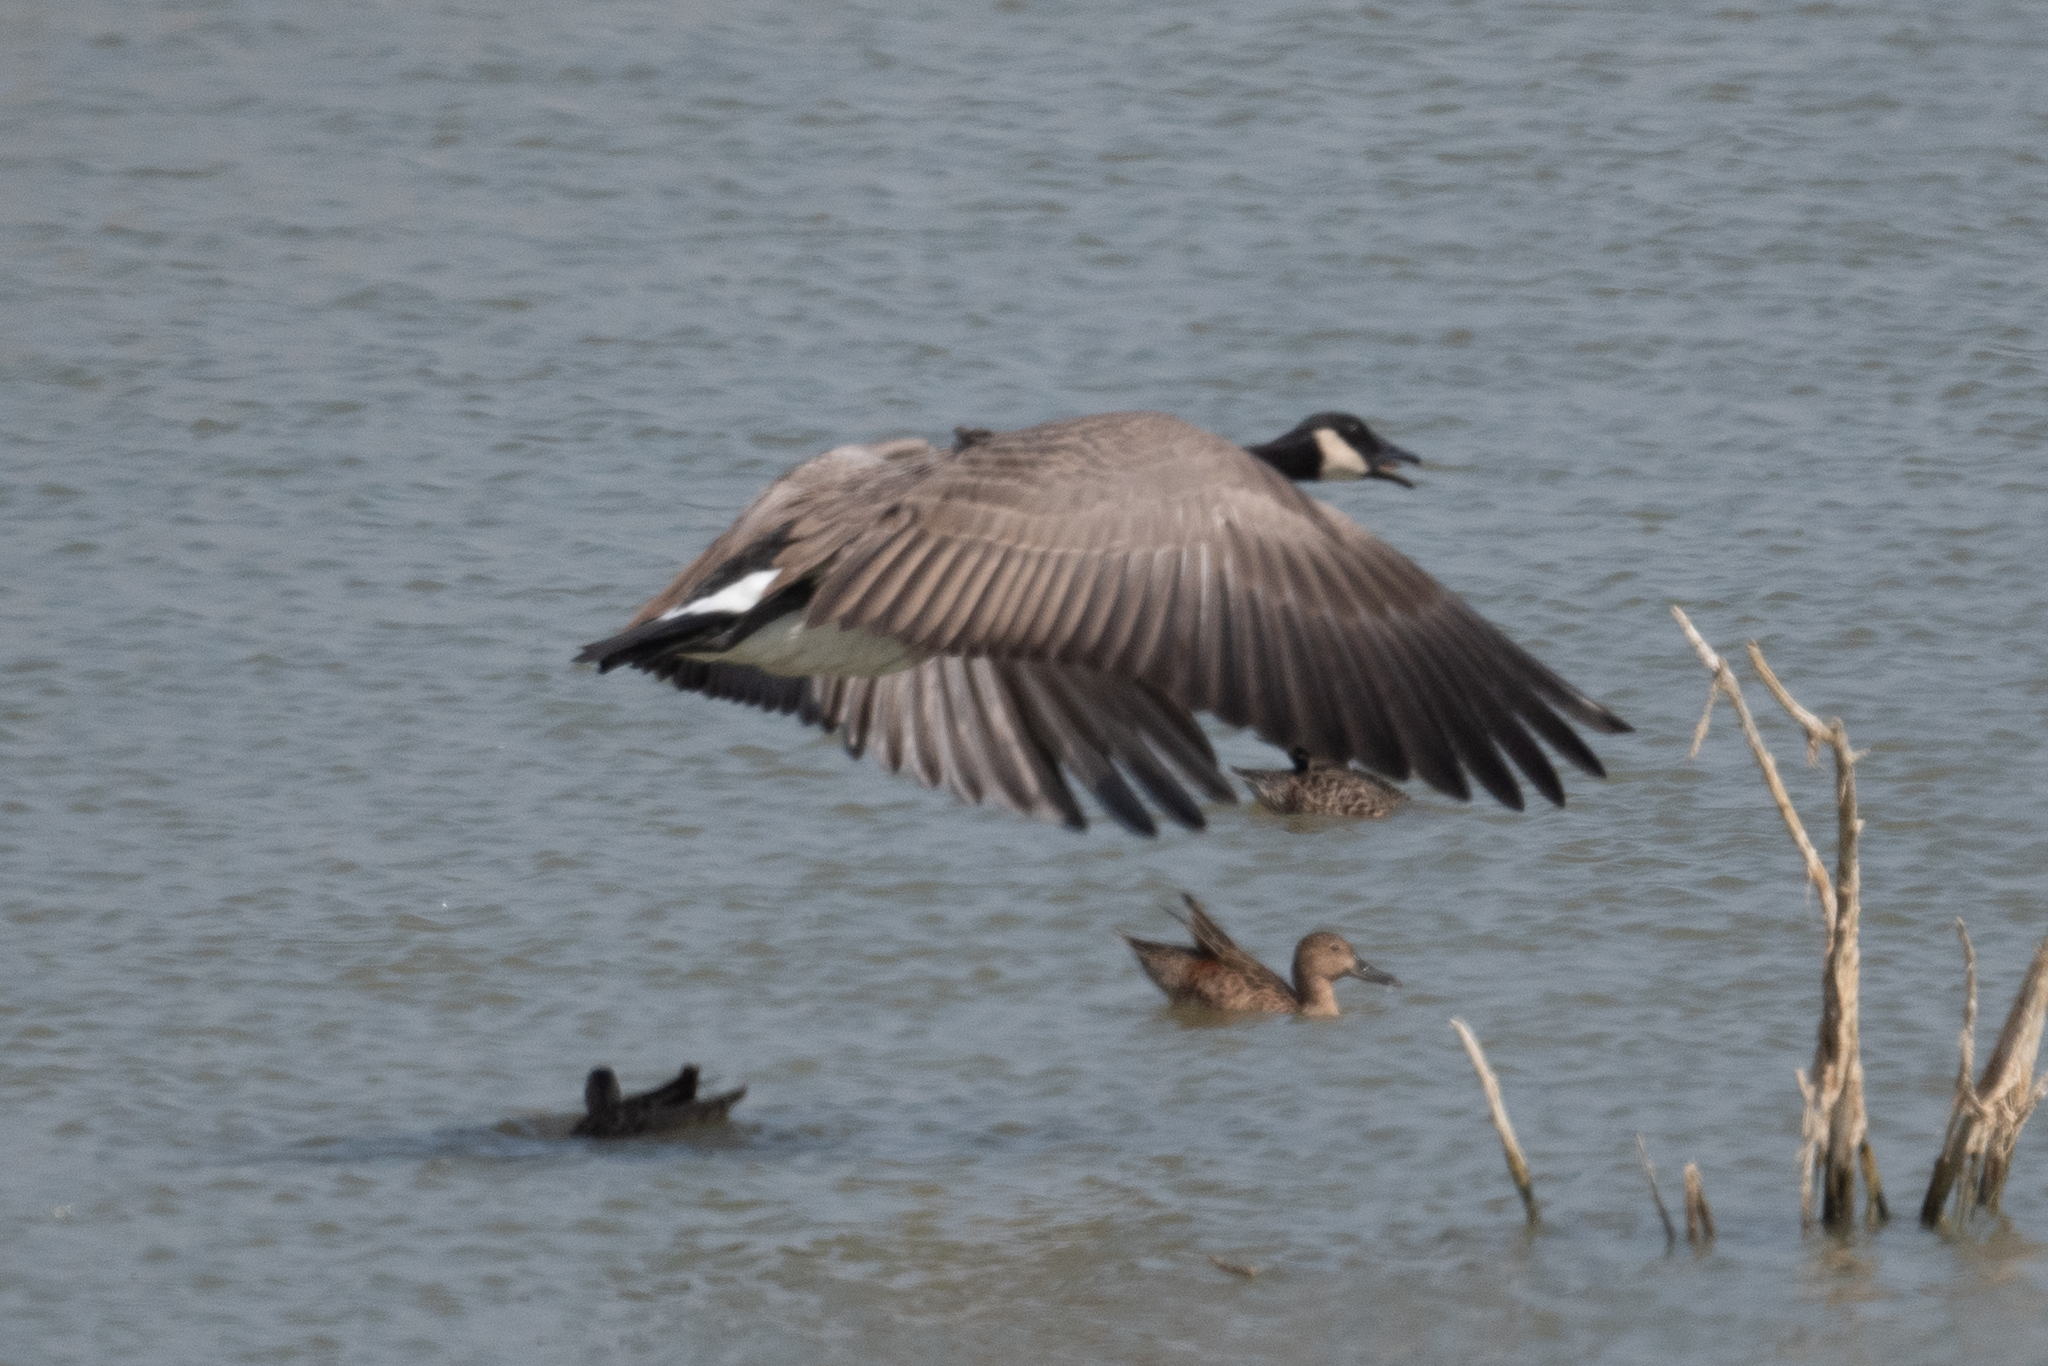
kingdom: Animalia
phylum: Chordata
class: Aves
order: Anseriformes
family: Anatidae
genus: Branta
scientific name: Branta canadensis
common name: Canada goose
